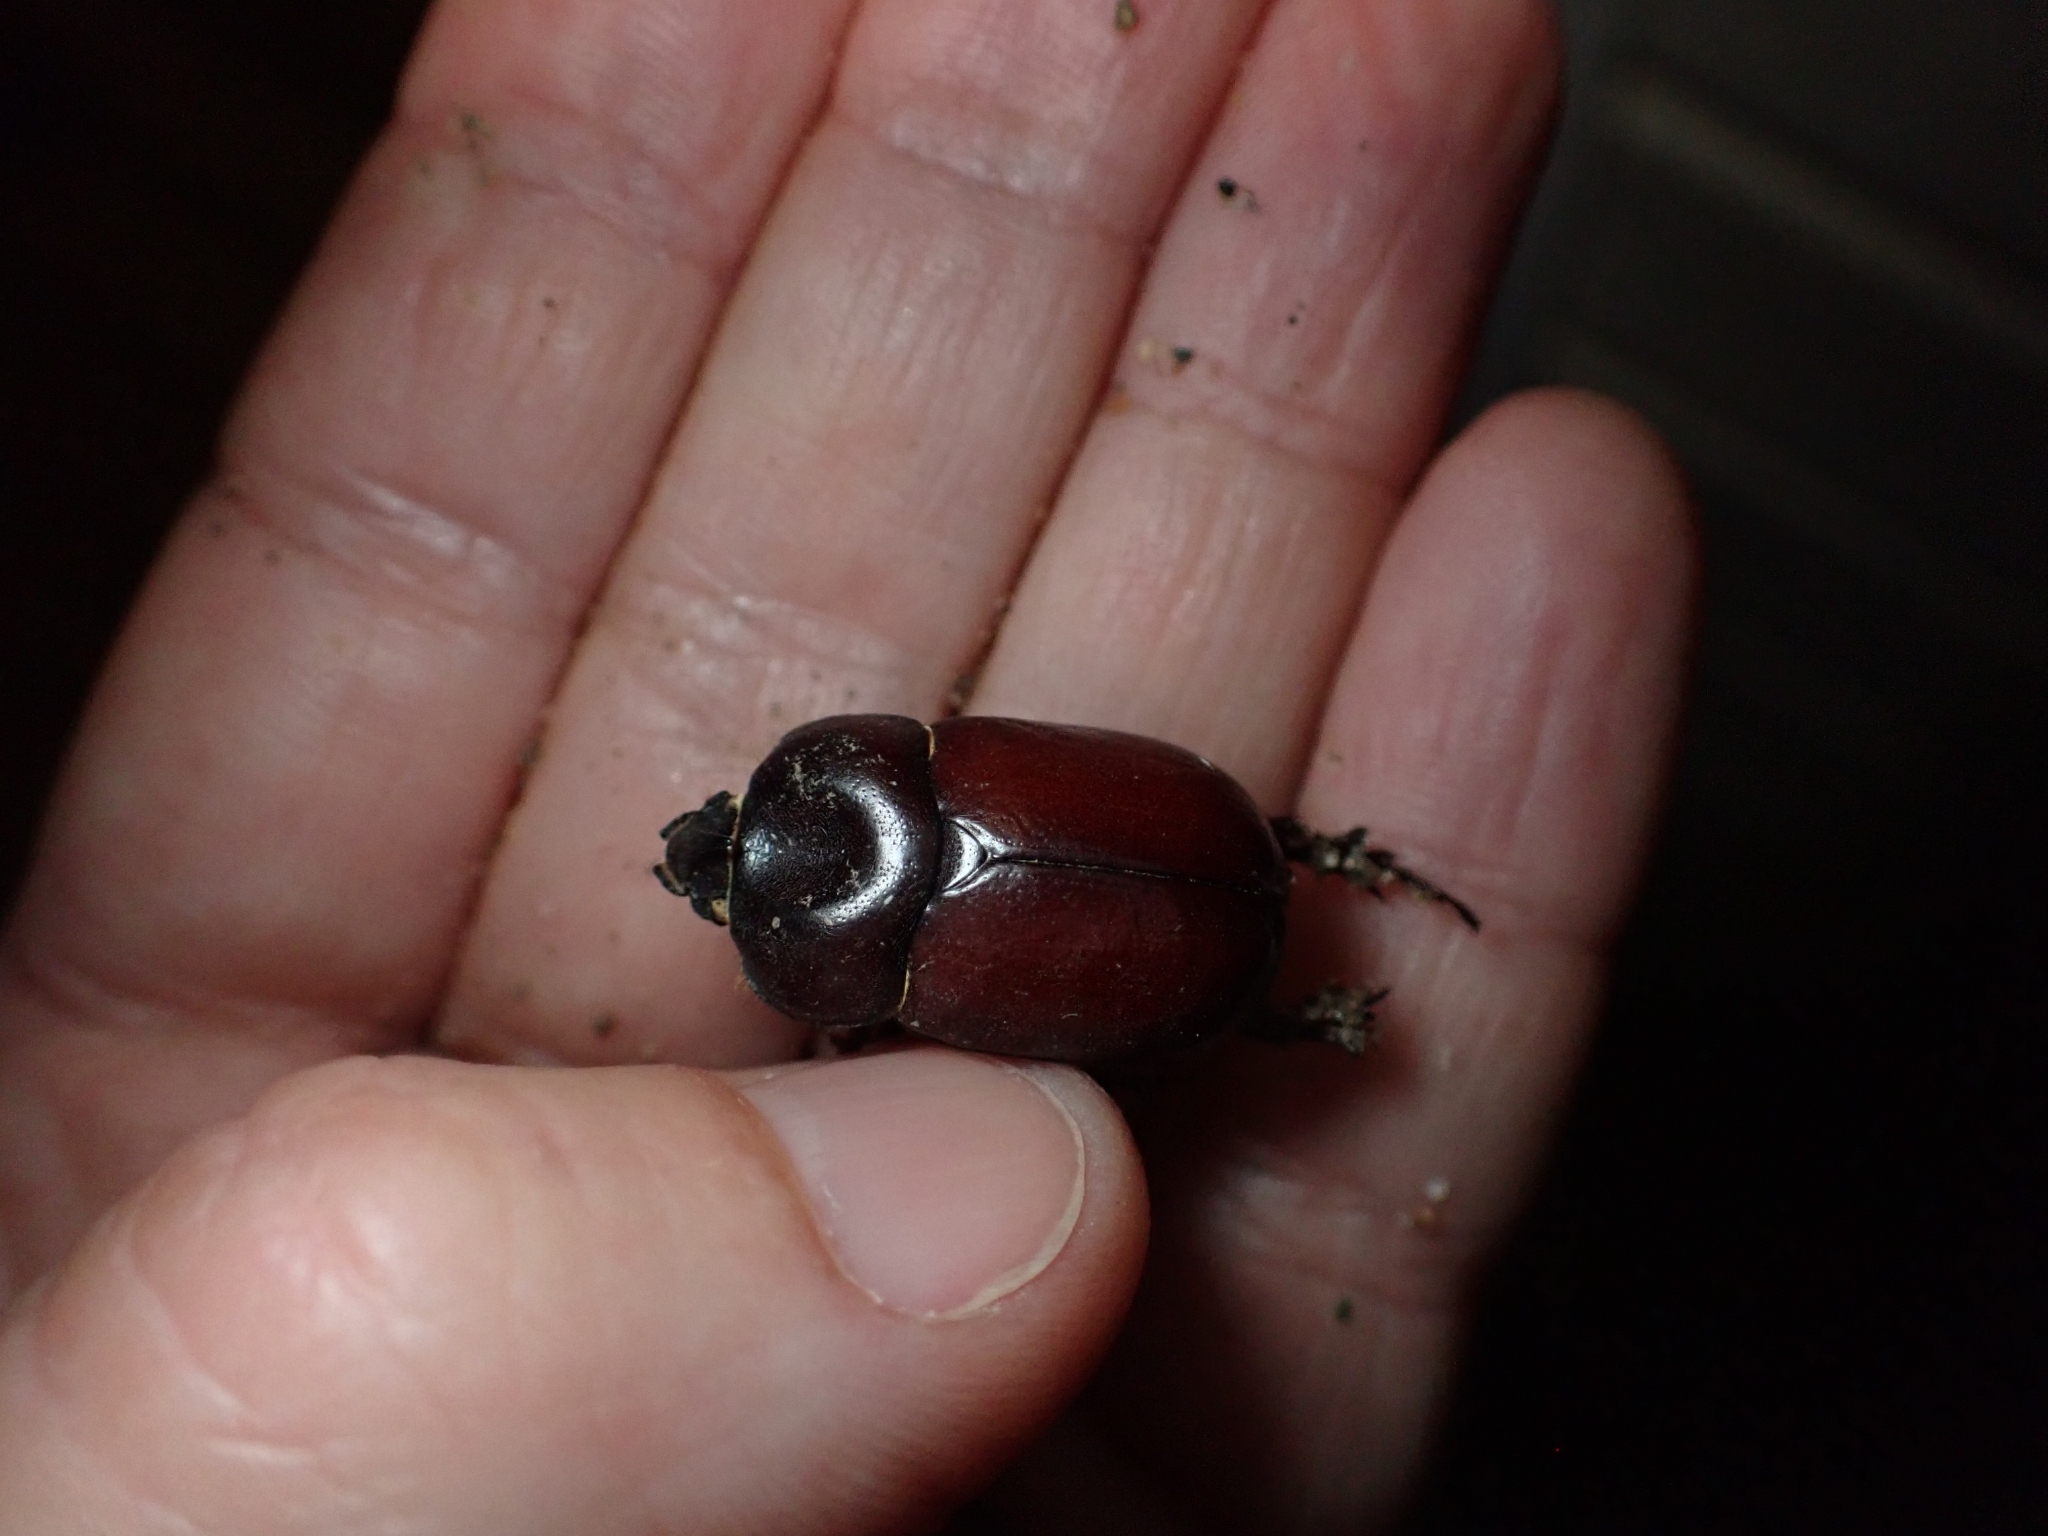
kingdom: Animalia
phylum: Arthropoda
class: Insecta
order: Coleoptera
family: Scarabaeidae
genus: Phyllognathus
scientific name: Phyllognathus excavatus
